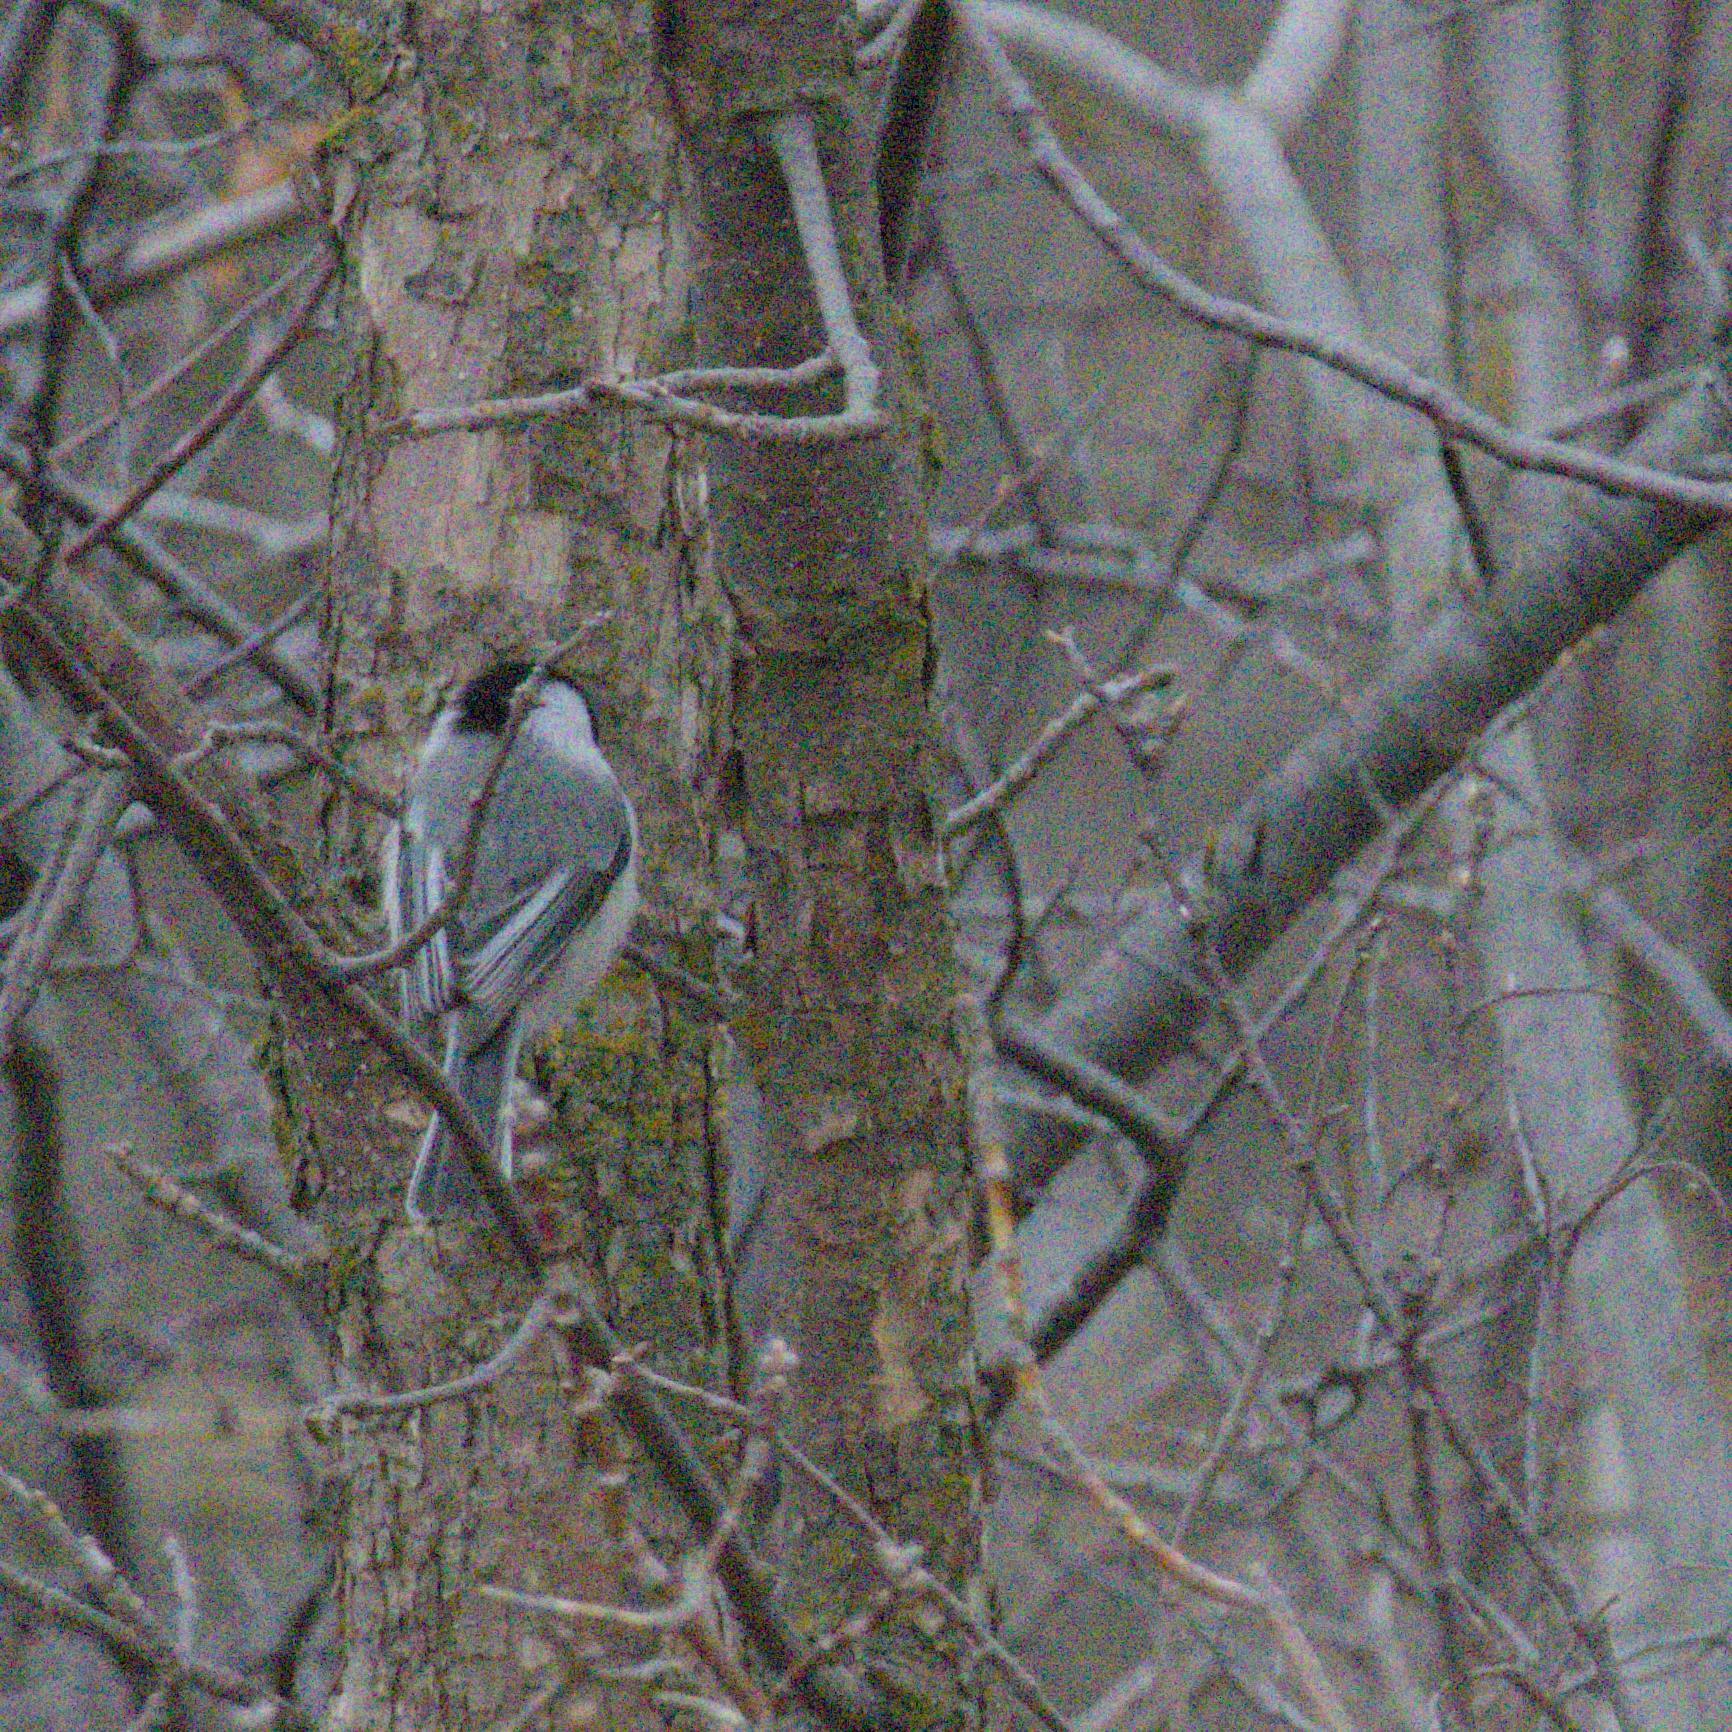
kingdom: Animalia
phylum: Chordata
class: Aves
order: Passeriformes
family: Paridae
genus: Poecile
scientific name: Poecile atricapillus
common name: Black-capped chickadee
